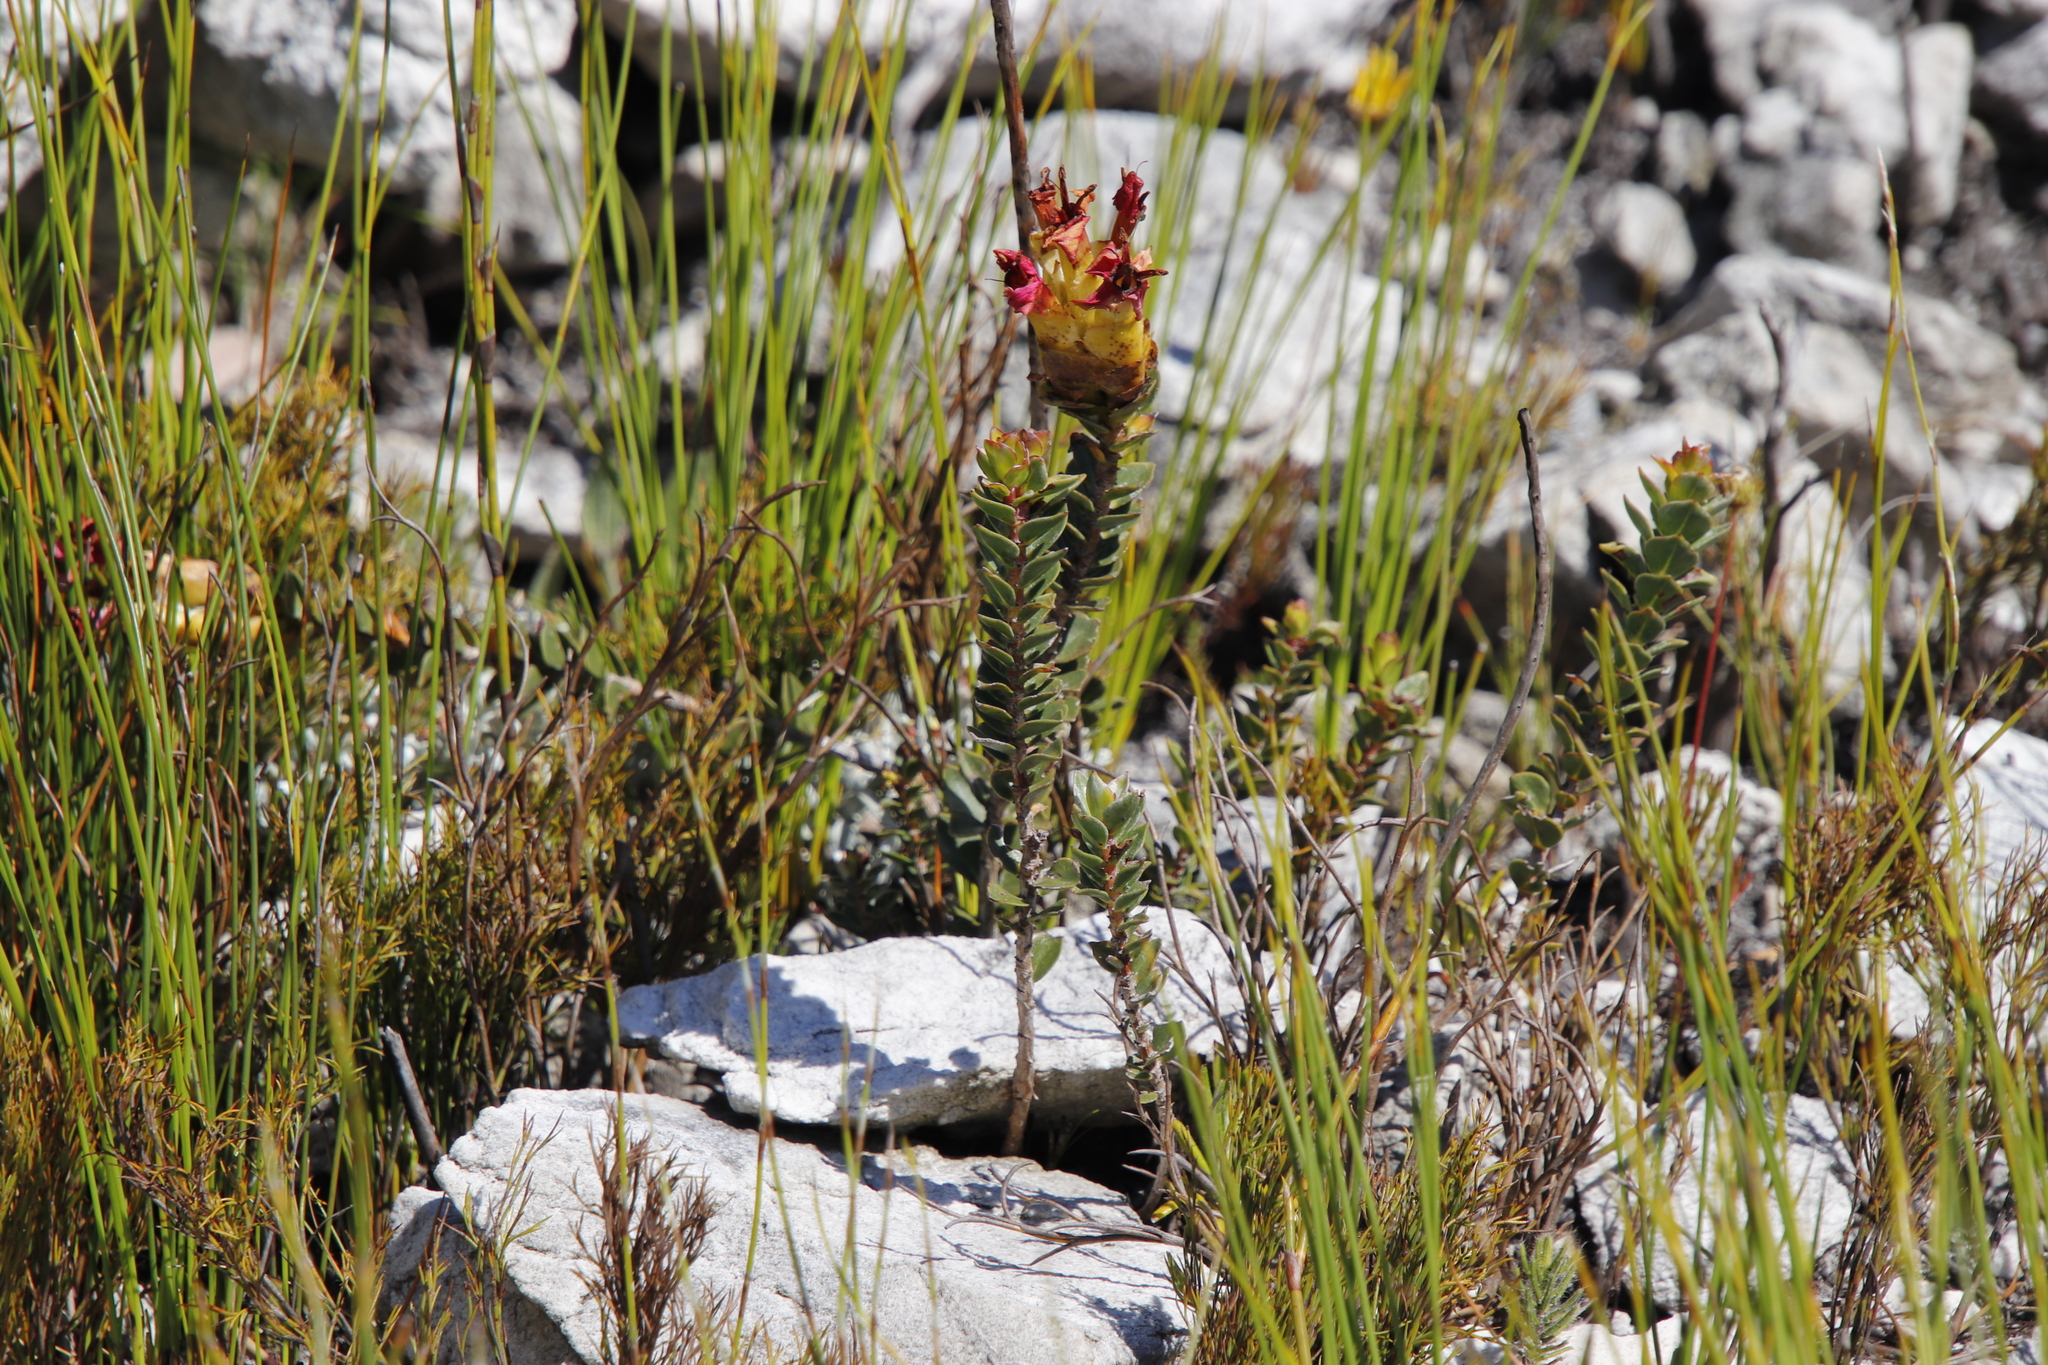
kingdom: Plantae
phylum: Tracheophyta
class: Magnoliopsida
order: Myrtales
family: Penaeaceae
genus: Saltera
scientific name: Saltera sarcocolla
